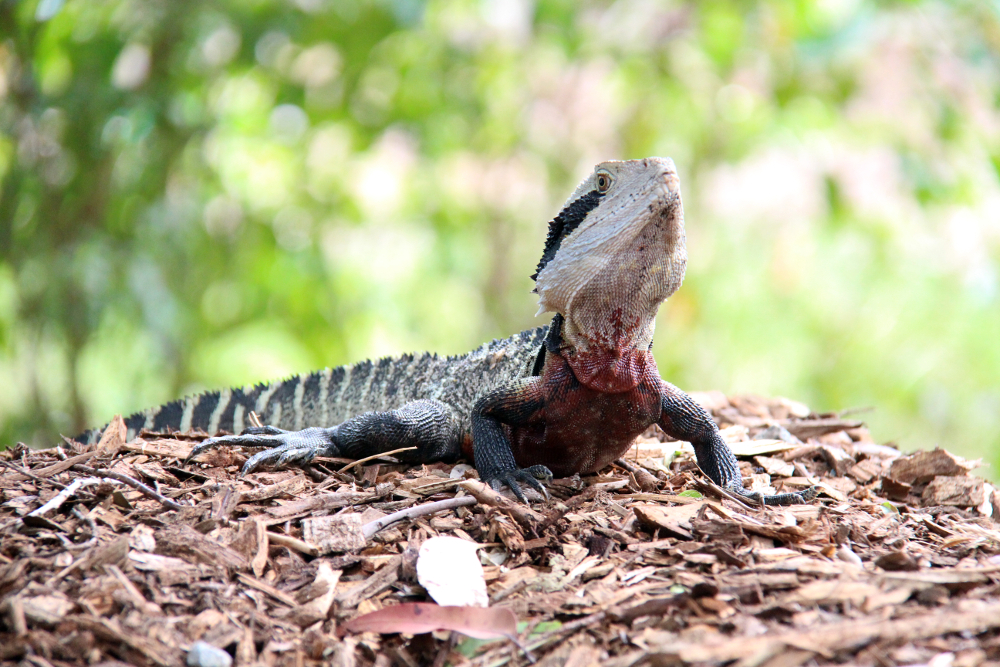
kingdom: Animalia
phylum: Chordata
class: Squamata
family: Agamidae
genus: Intellagama
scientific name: Intellagama lesueurii
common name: Eastern water dragon
